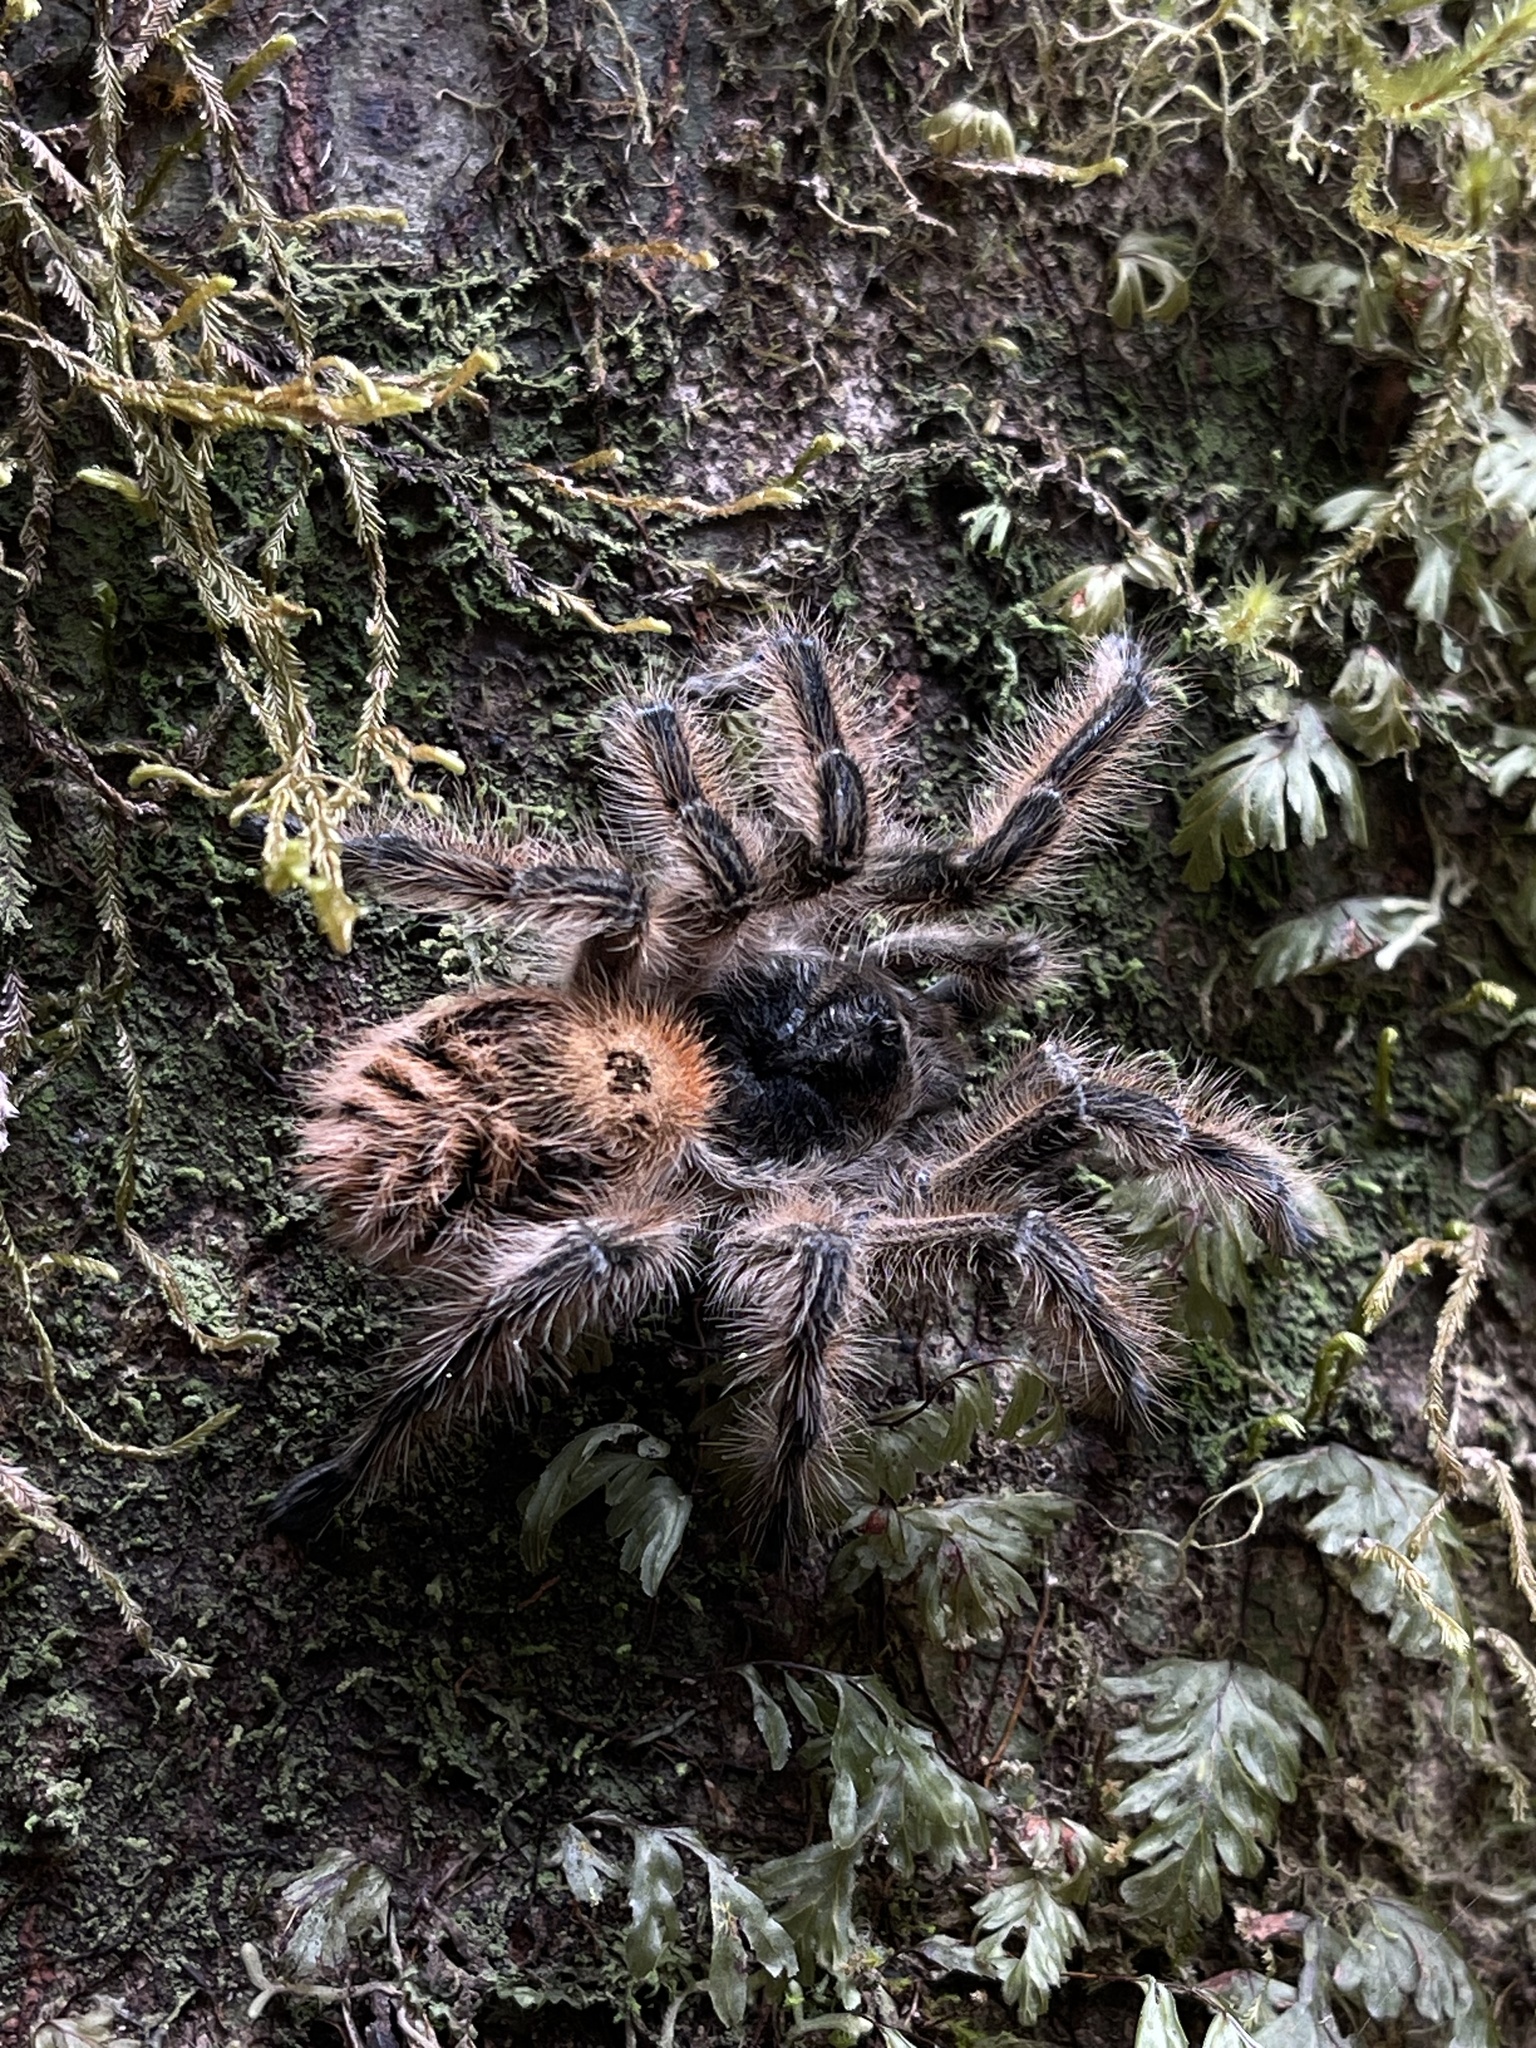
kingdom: Animalia
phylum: Arthropoda
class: Arachnida
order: Araneae
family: Theraphosidae
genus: Phrixotrichus
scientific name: Phrixotrichus vulpinus
